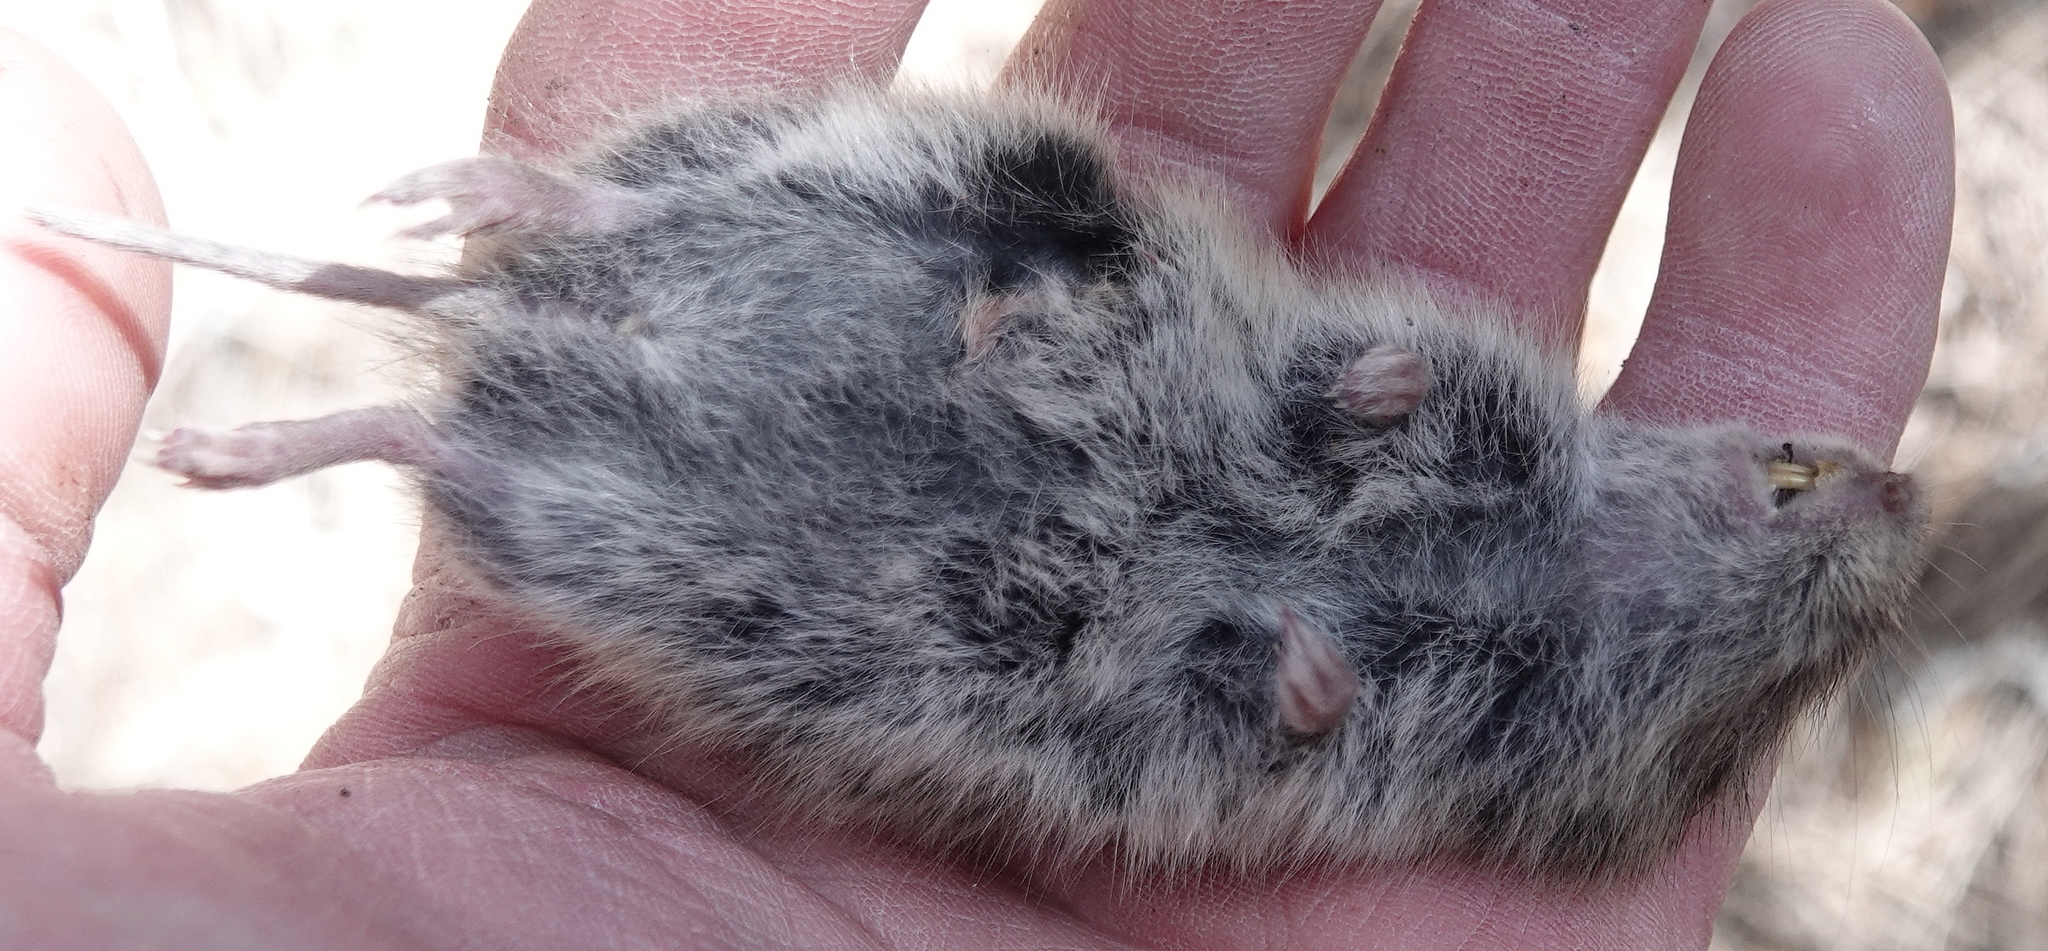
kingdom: Animalia
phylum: Chordata
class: Mammalia
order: Rodentia
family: Cricetidae
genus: Microtus
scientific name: Microtus pennsylvanicus
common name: Meadow vole
